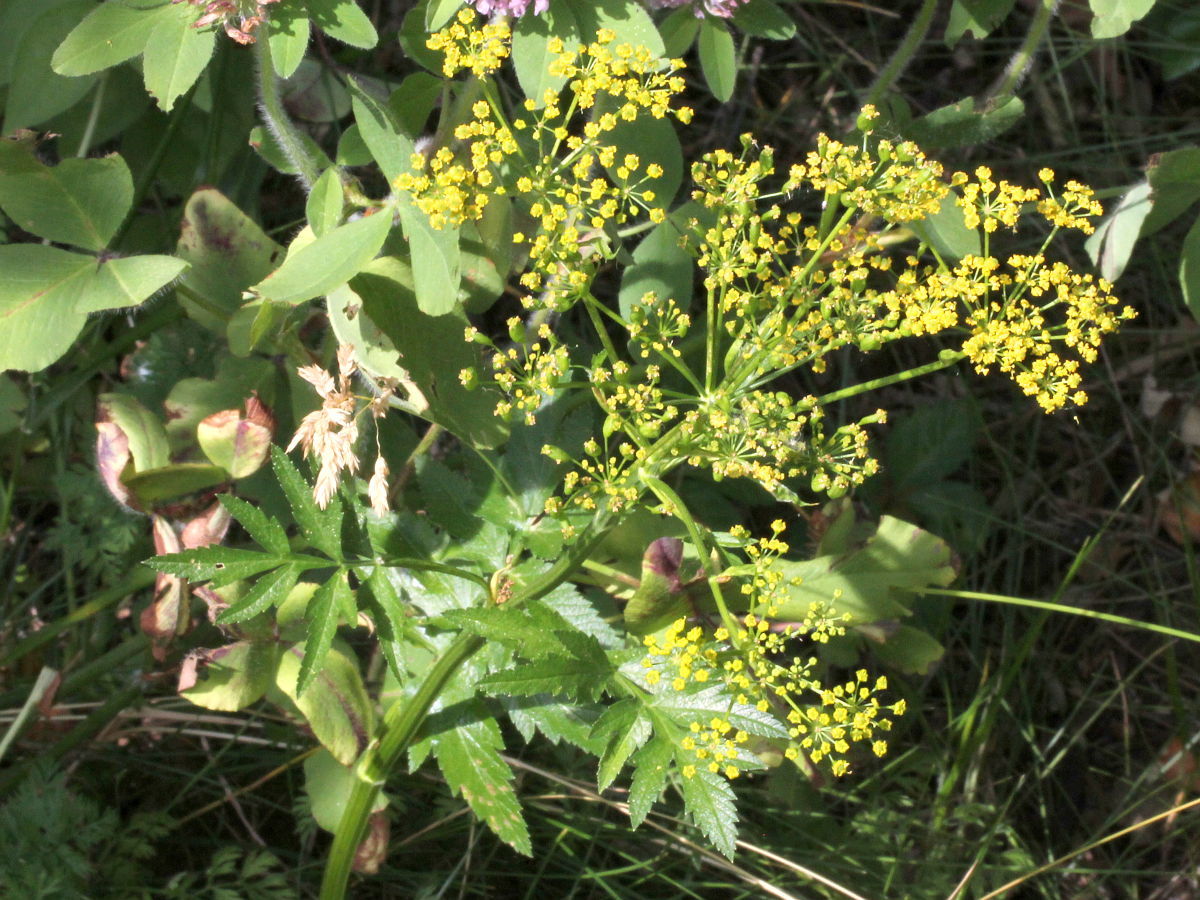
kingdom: Plantae
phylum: Tracheophyta
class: Magnoliopsida
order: Apiales
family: Apiaceae
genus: Pastinaca
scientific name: Pastinaca sativa
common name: Wild parsnip
